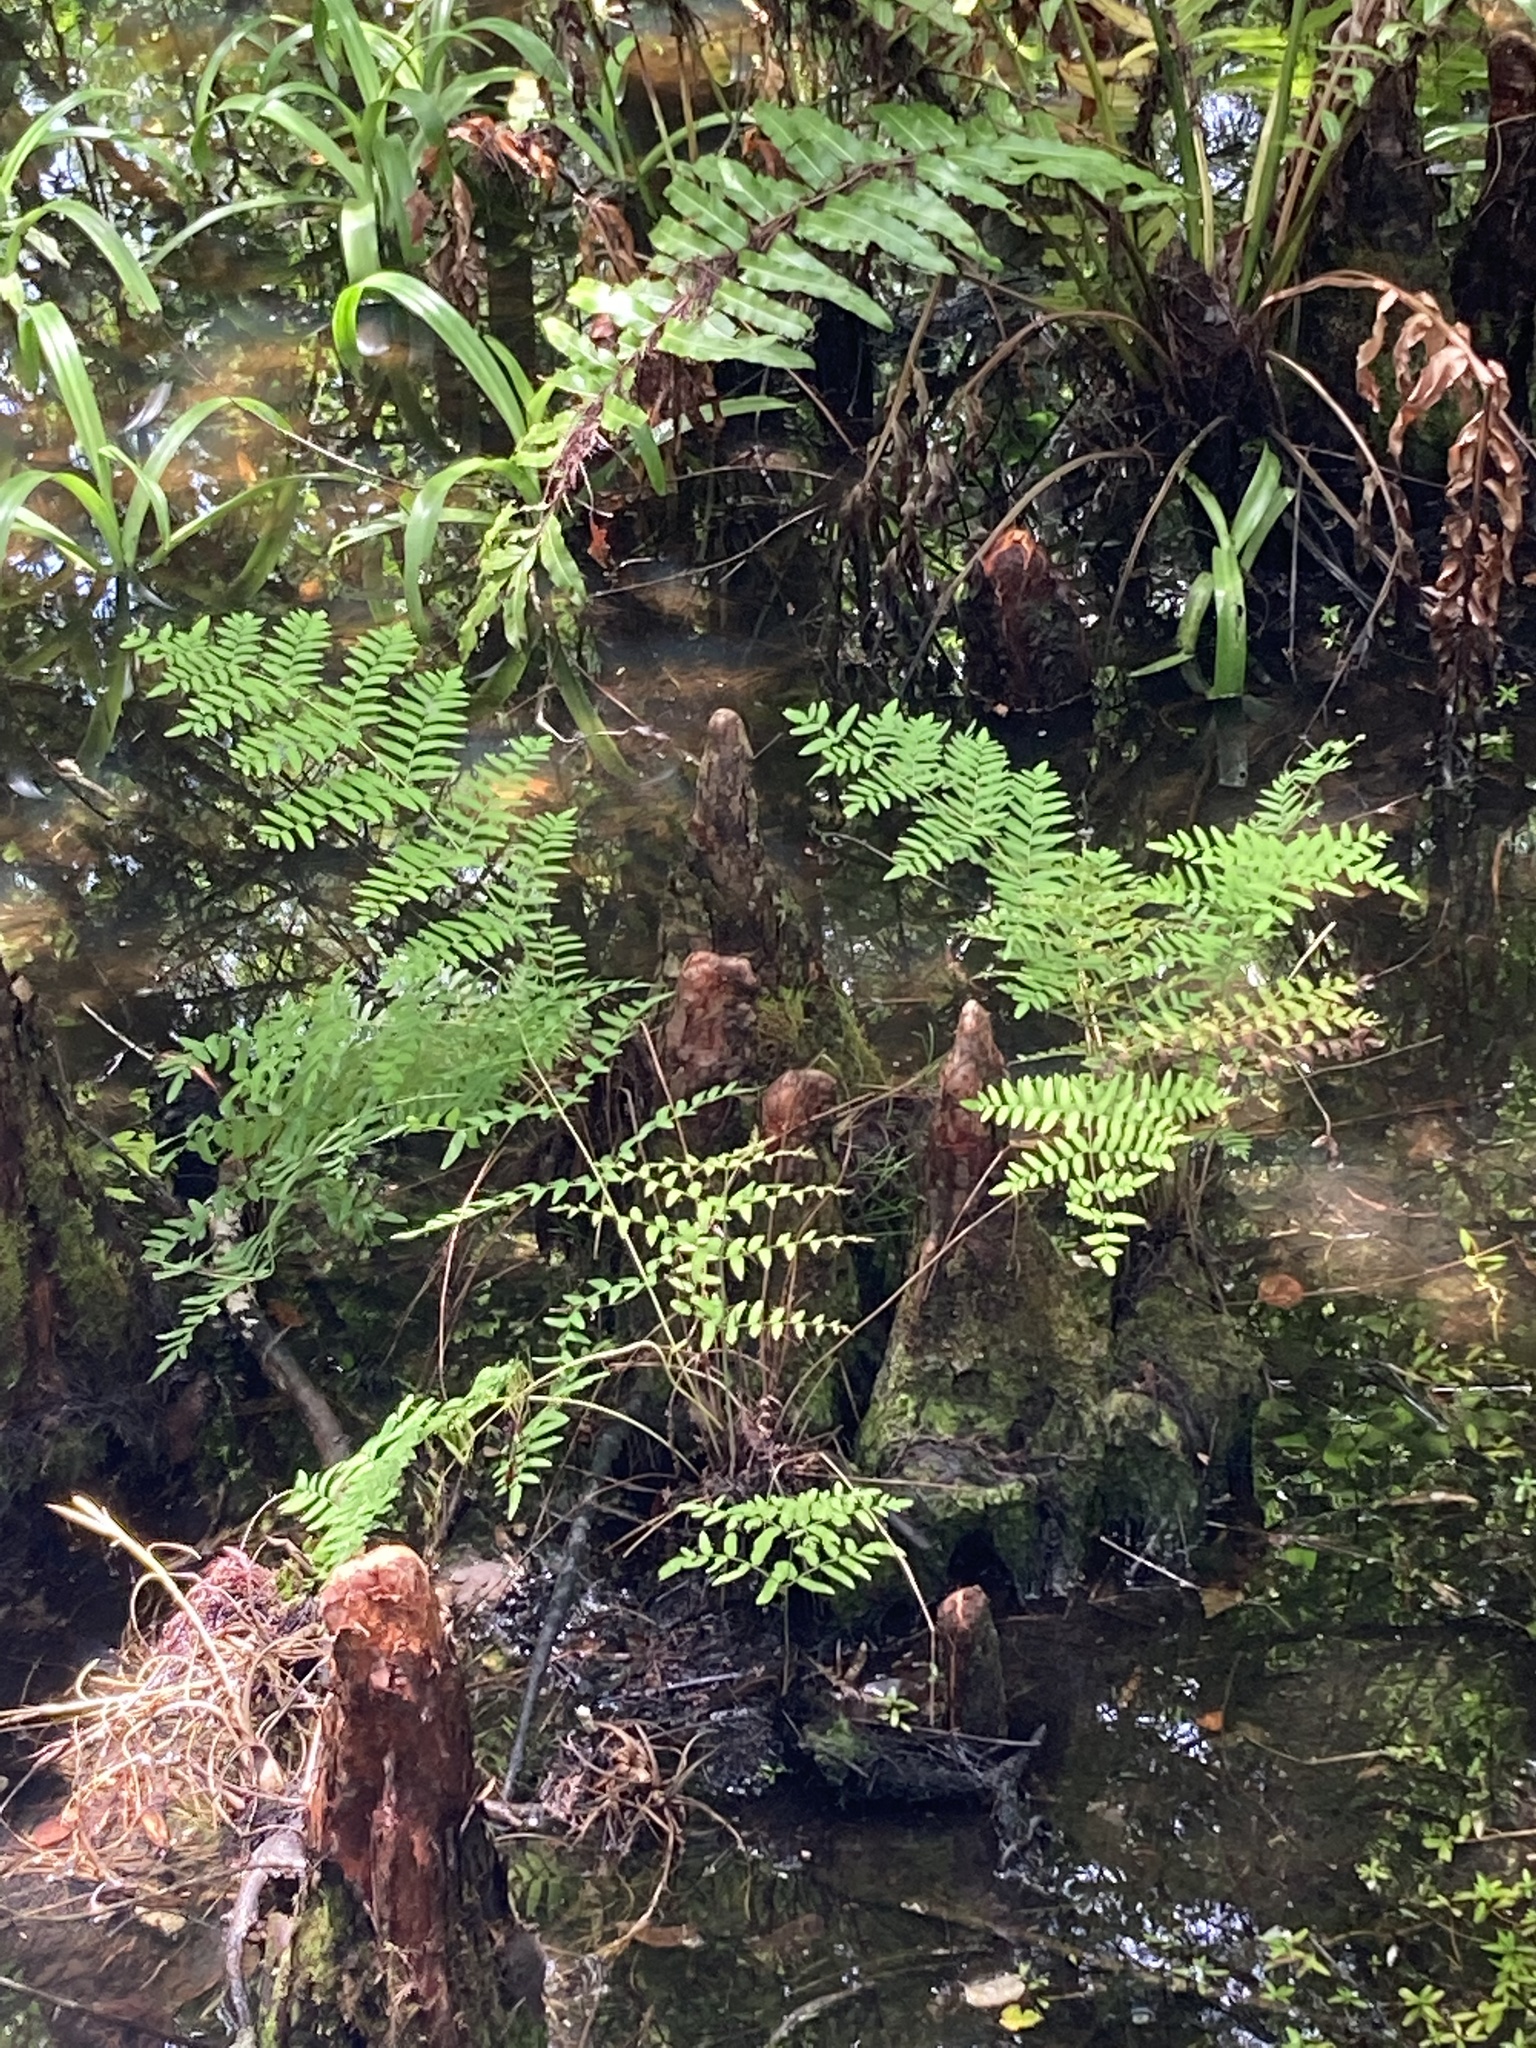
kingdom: Plantae
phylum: Tracheophyta
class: Polypodiopsida
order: Osmundales
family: Osmundaceae
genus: Osmunda
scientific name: Osmunda spectabilis
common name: American royal fern
